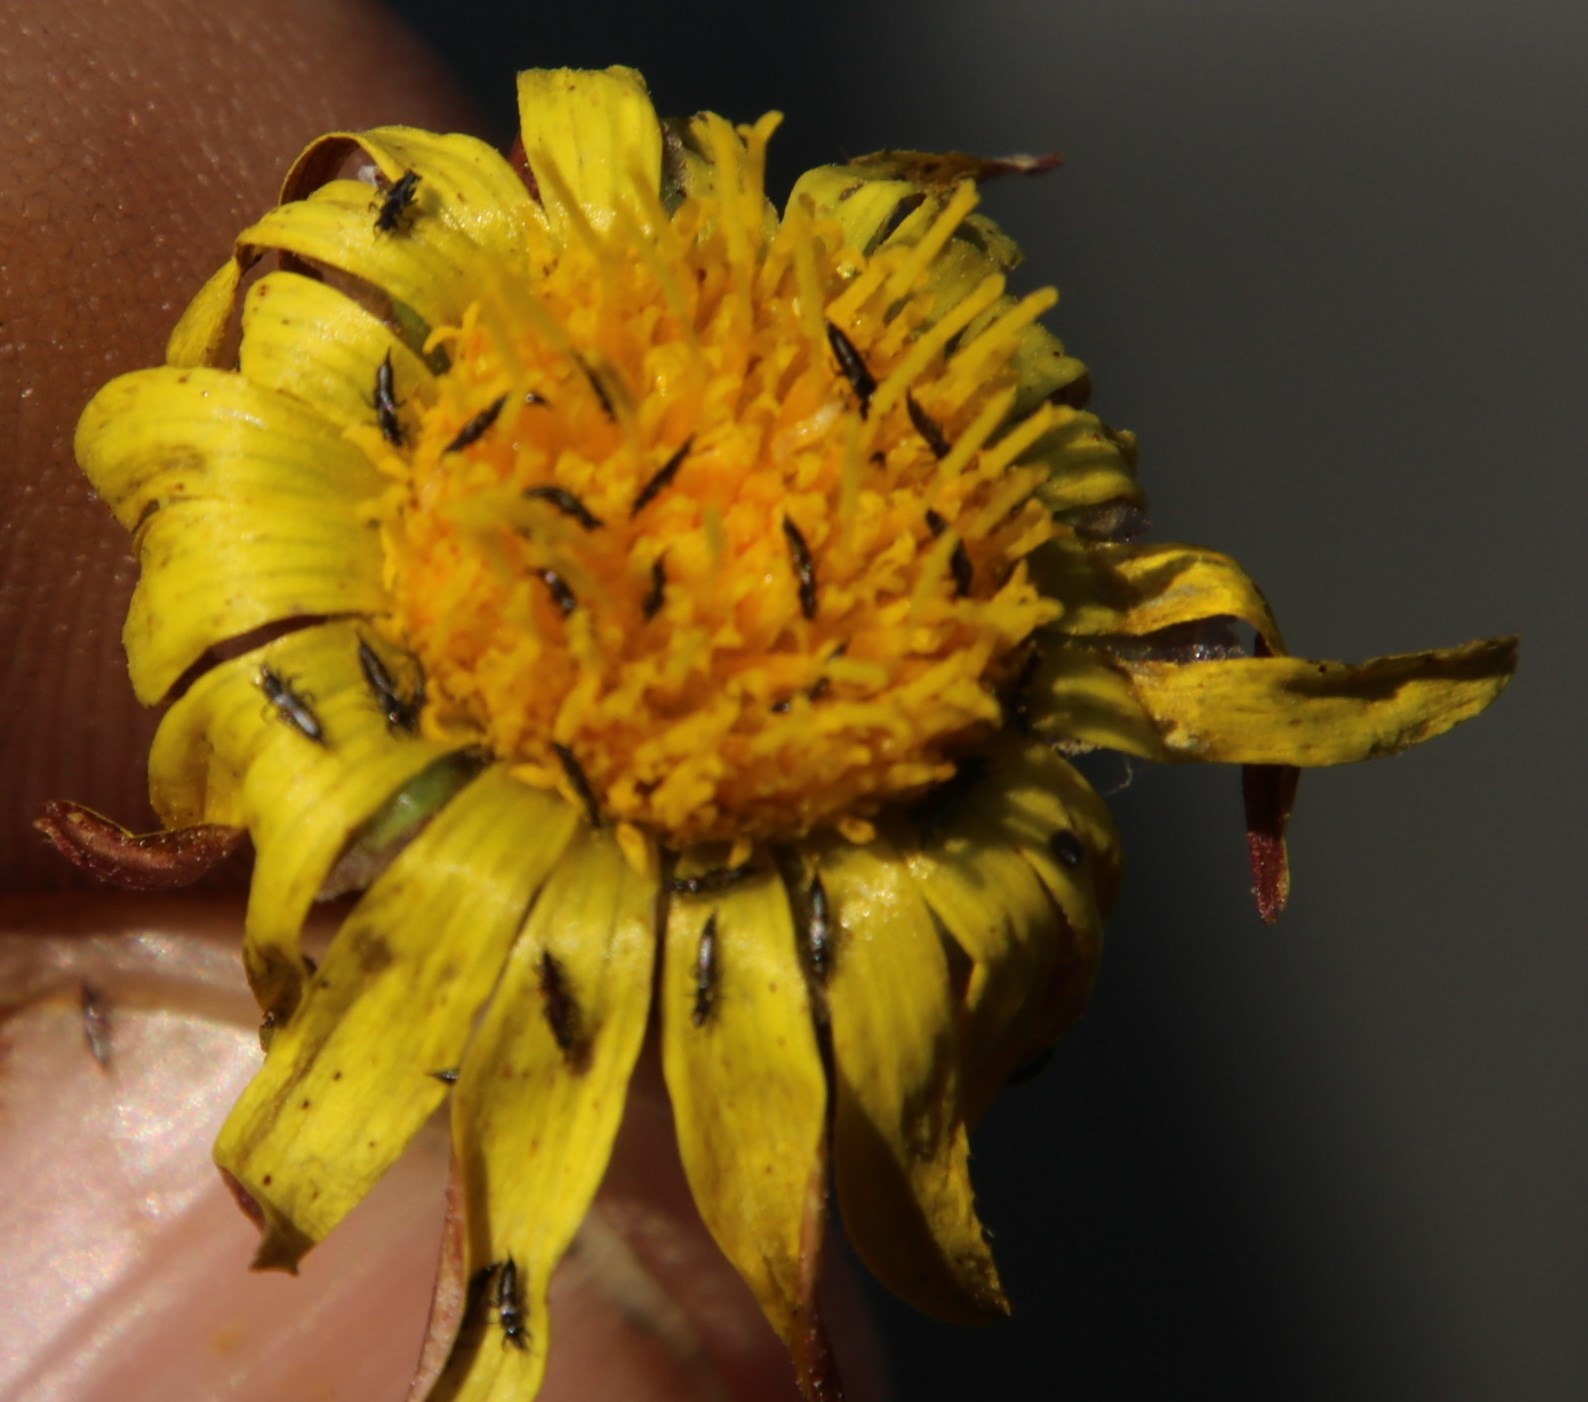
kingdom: Plantae
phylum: Tracheophyta
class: Magnoliopsida
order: Asterales
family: Asteraceae
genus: Arctotis
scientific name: Arctotis arctotoides
